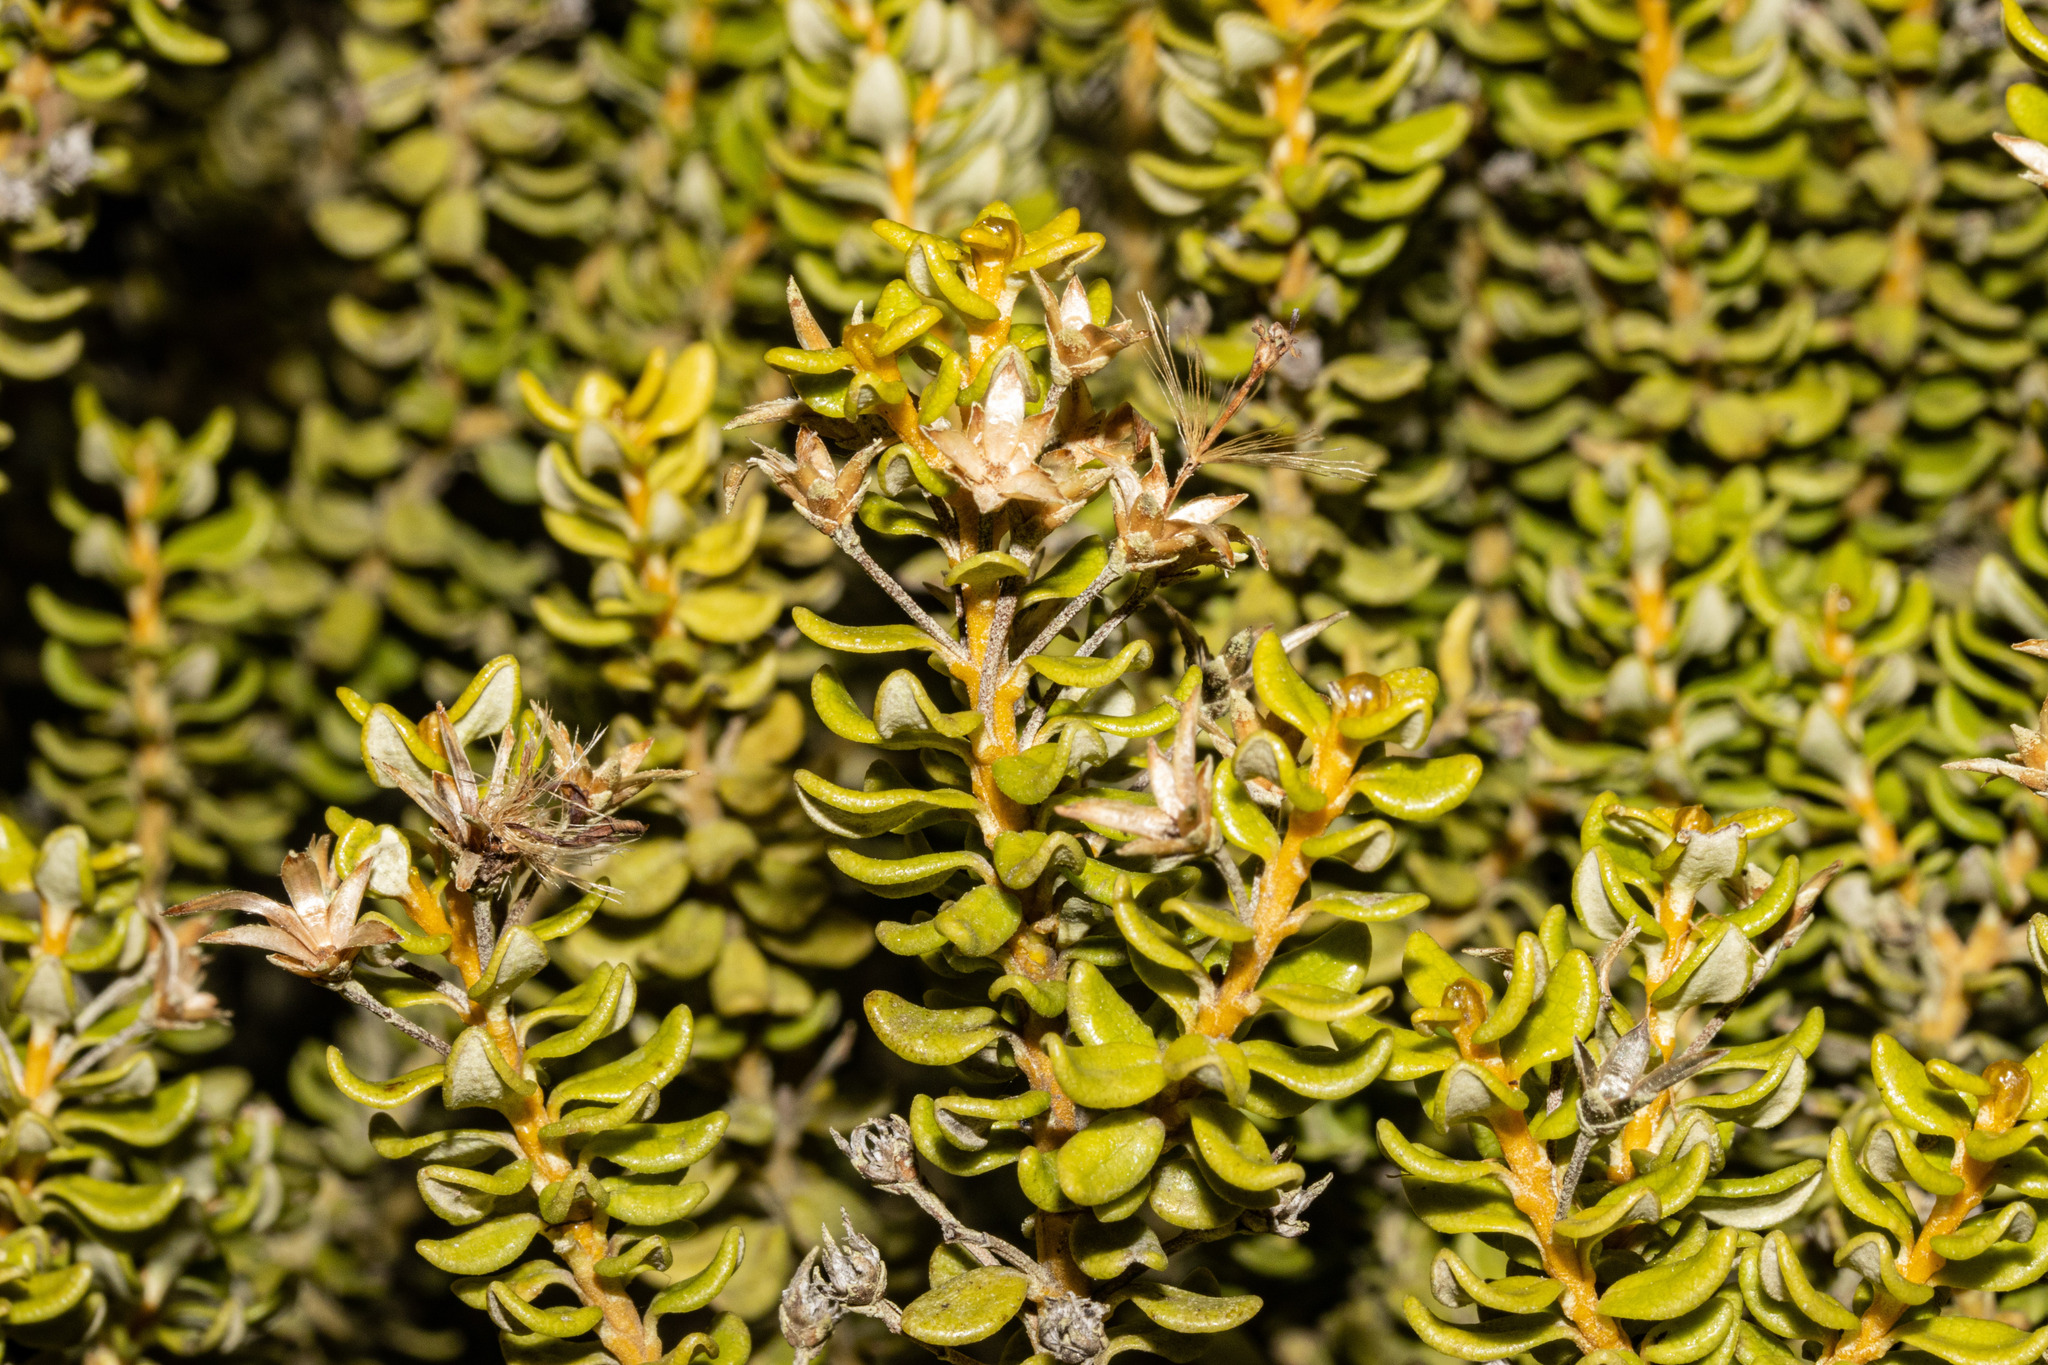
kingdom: Plantae
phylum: Tracheophyta
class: Magnoliopsida
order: Asterales
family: Asteraceae
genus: Olearia
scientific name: Olearia nummularifolia
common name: Sticky daisybush
